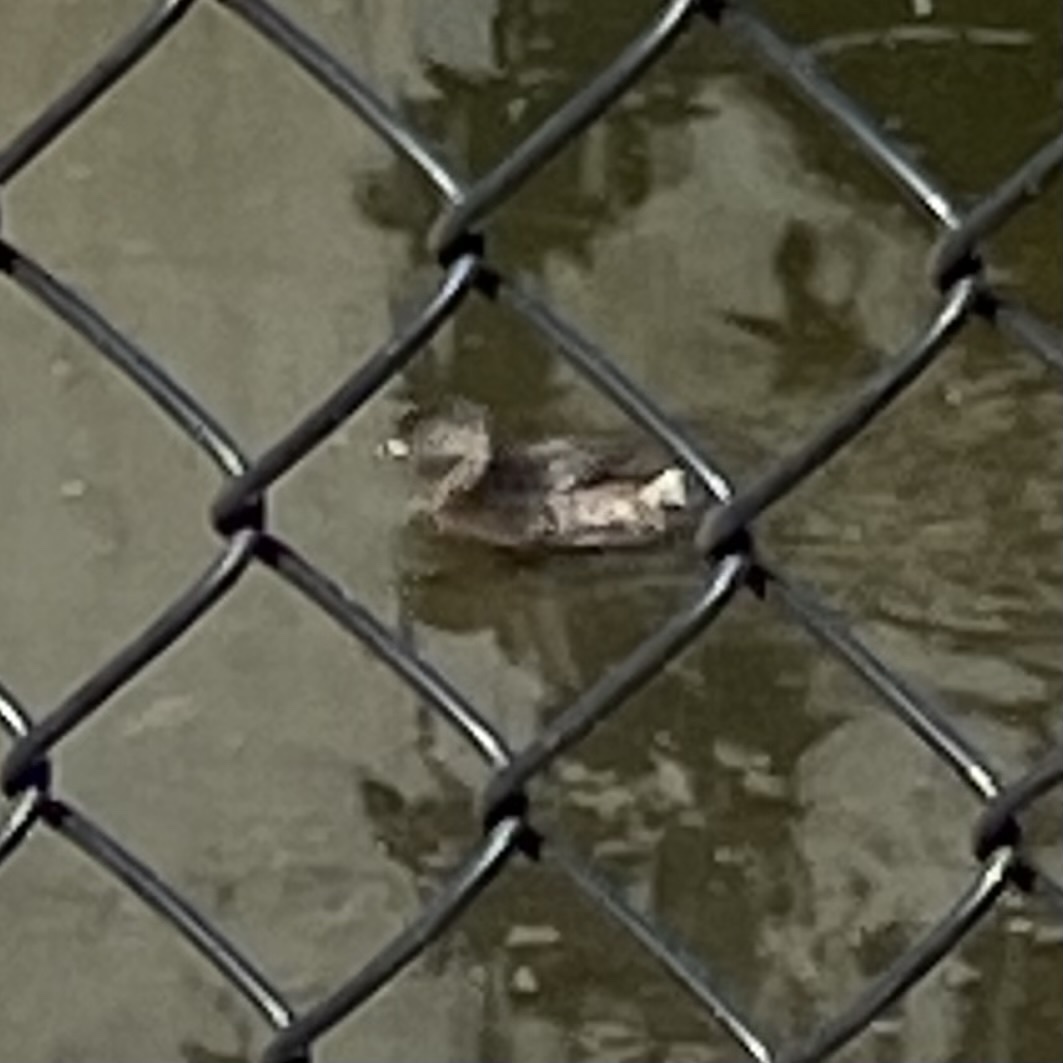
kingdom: Animalia
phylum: Chordata
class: Aves
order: Podicipediformes
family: Podicipedidae
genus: Podilymbus
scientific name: Podilymbus podiceps
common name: Pied-billed grebe
